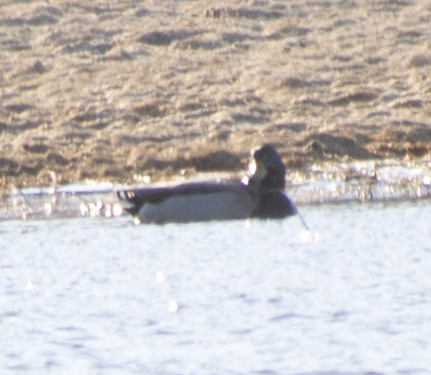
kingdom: Animalia
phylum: Chordata
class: Aves
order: Anseriformes
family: Anatidae
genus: Anas
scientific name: Anas platyrhynchos
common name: Mallard
